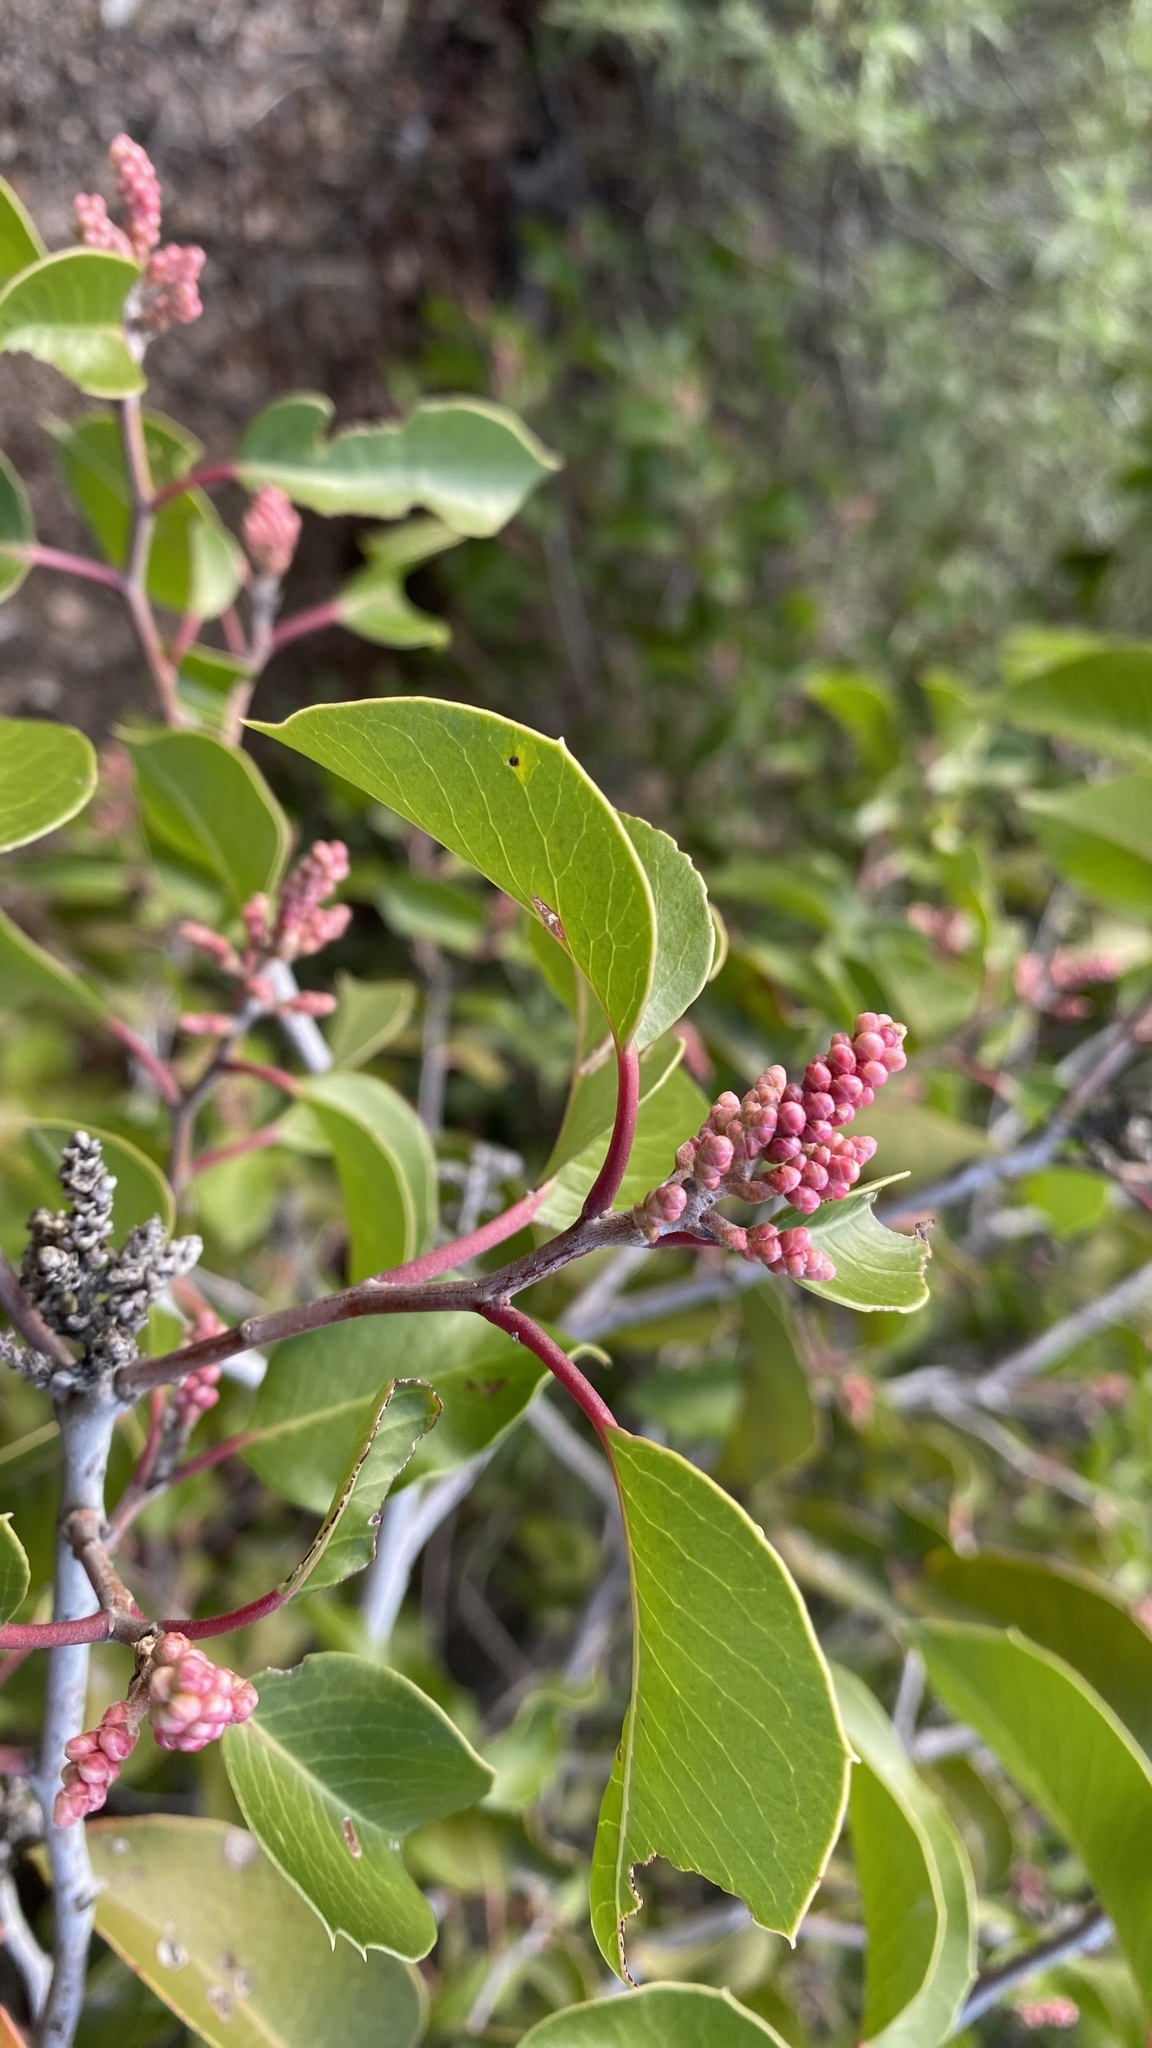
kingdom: Plantae
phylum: Tracheophyta
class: Magnoliopsida
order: Sapindales
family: Anacardiaceae
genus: Rhus
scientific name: Rhus ovata
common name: Sugar sumac
